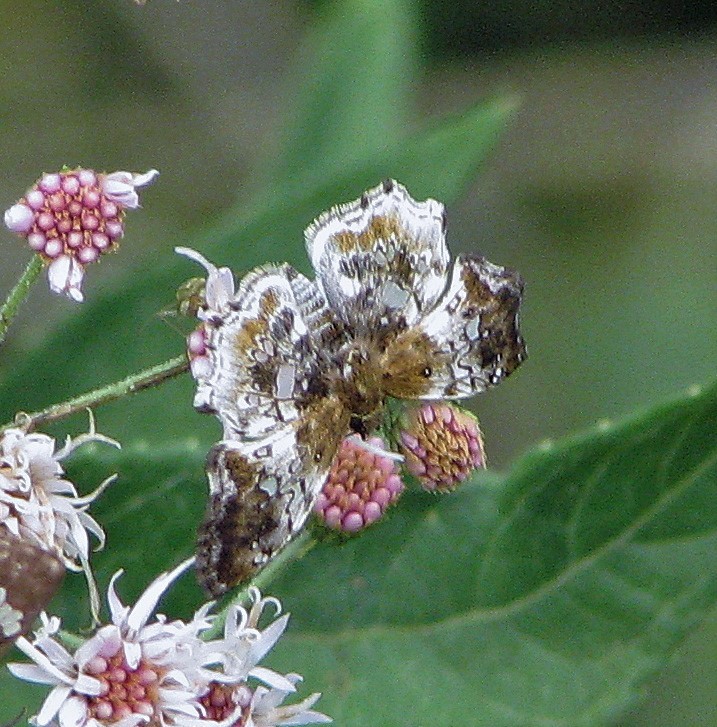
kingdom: Animalia
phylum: Arthropoda
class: Insecta
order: Lepidoptera
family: Hesperiidae
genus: Diaeus
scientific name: Diaeus variegatus
